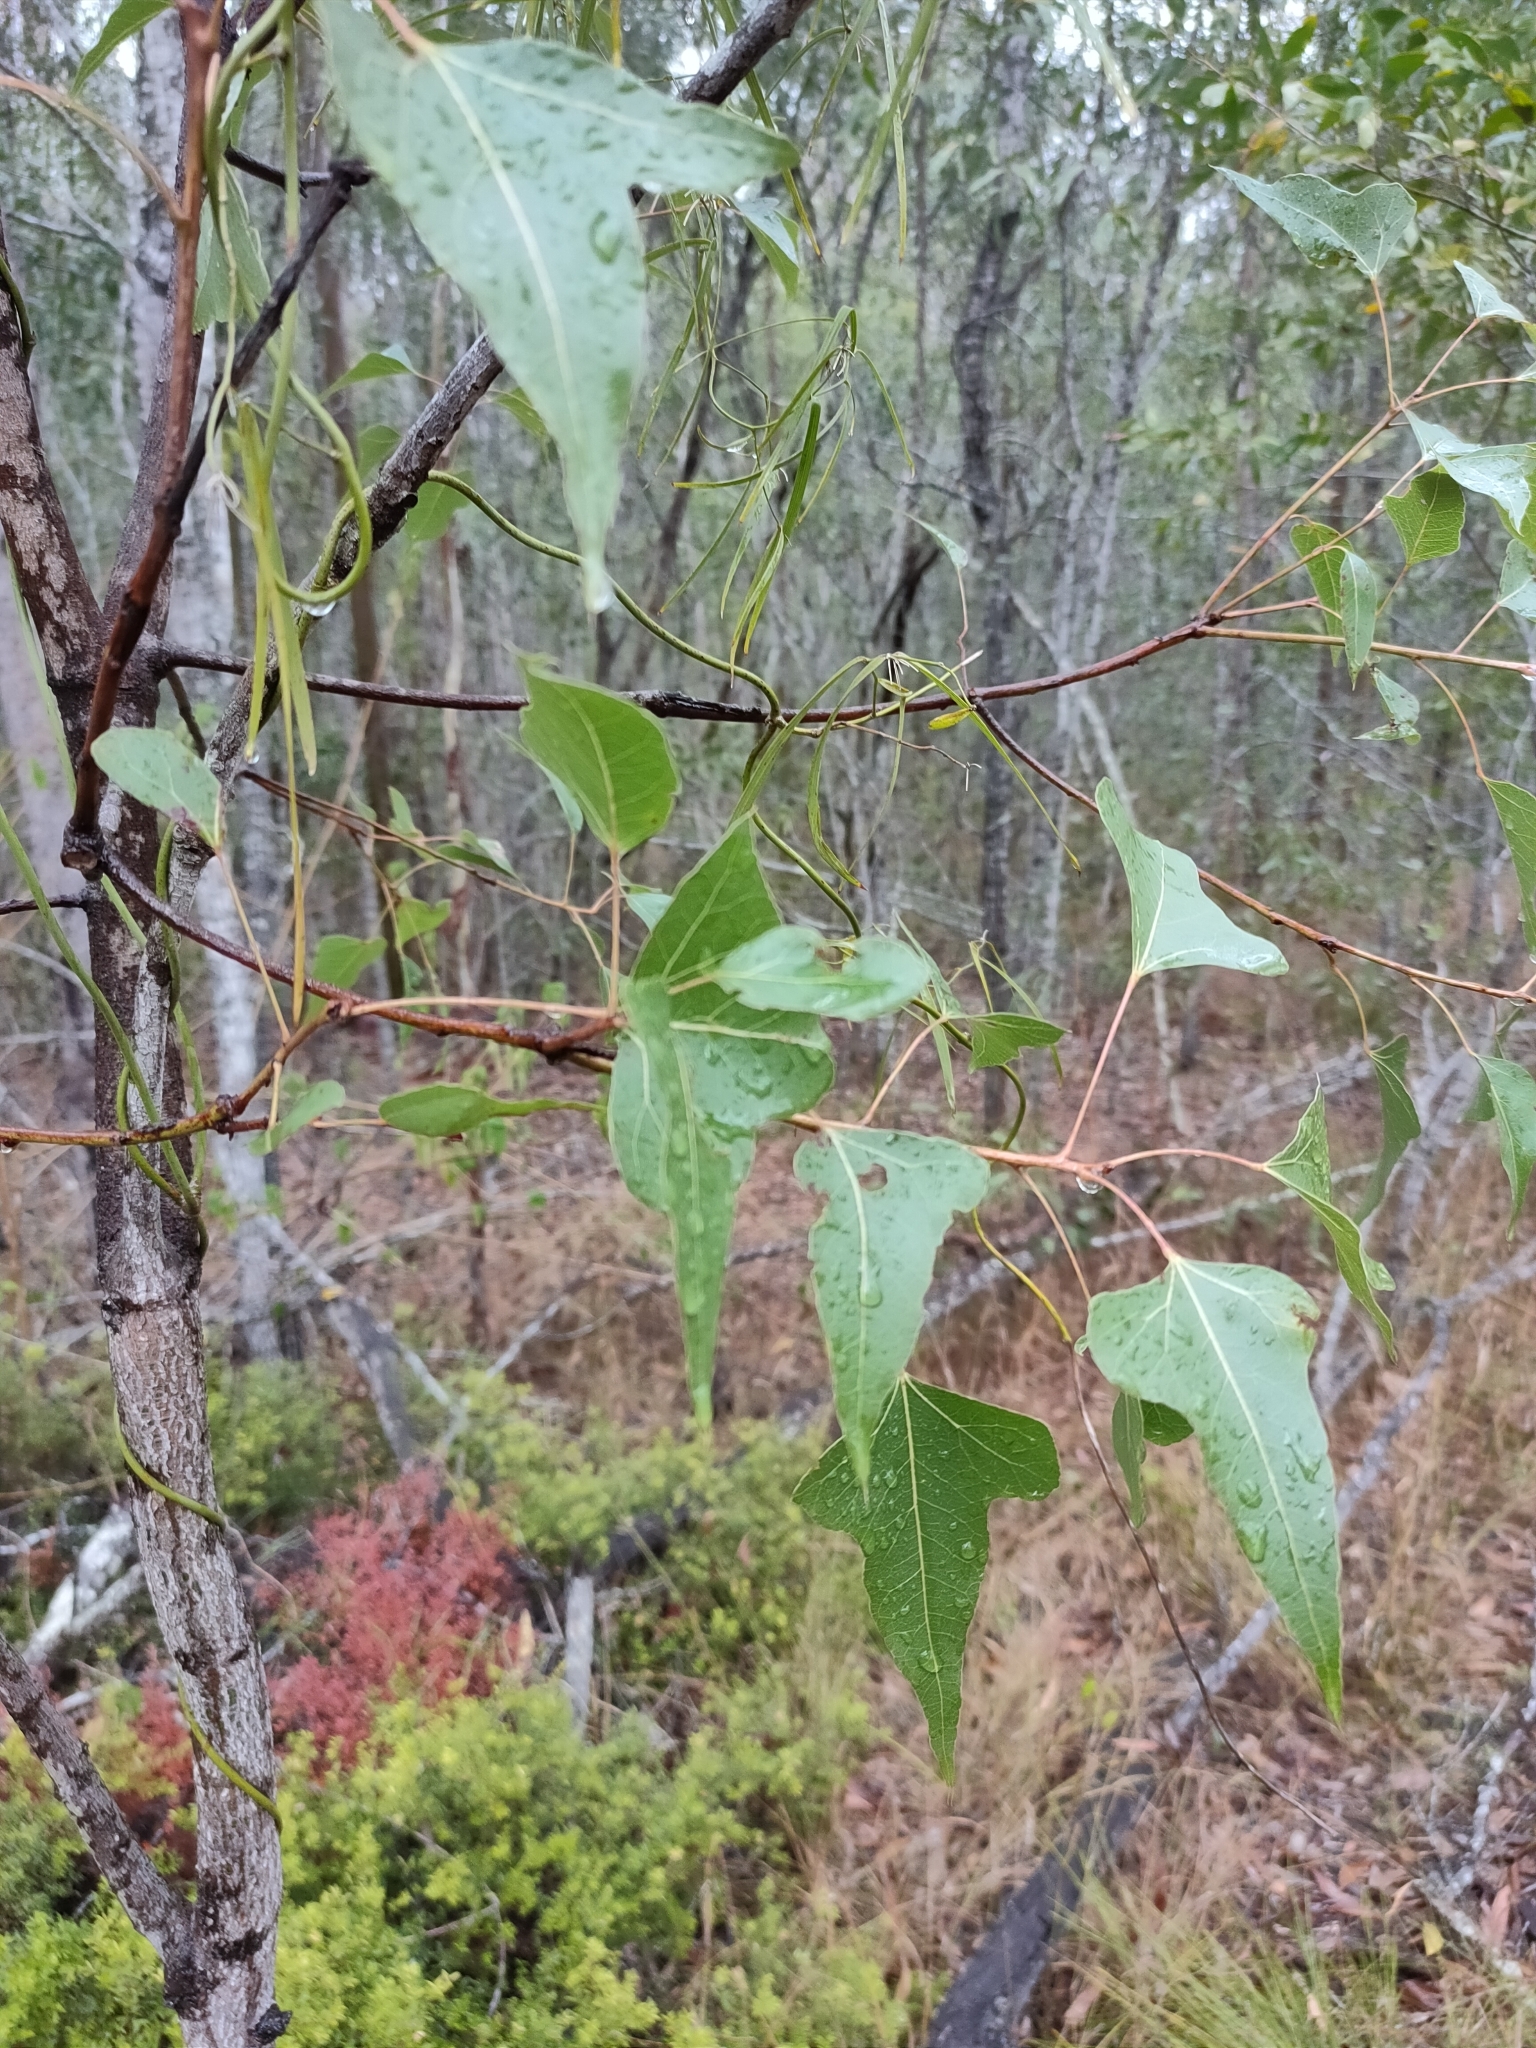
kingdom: Plantae
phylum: Tracheophyta
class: Magnoliopsida
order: Malvales
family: Malvaceae
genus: Brachychiton
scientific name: Brachychiton populneus
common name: Kurrajong
